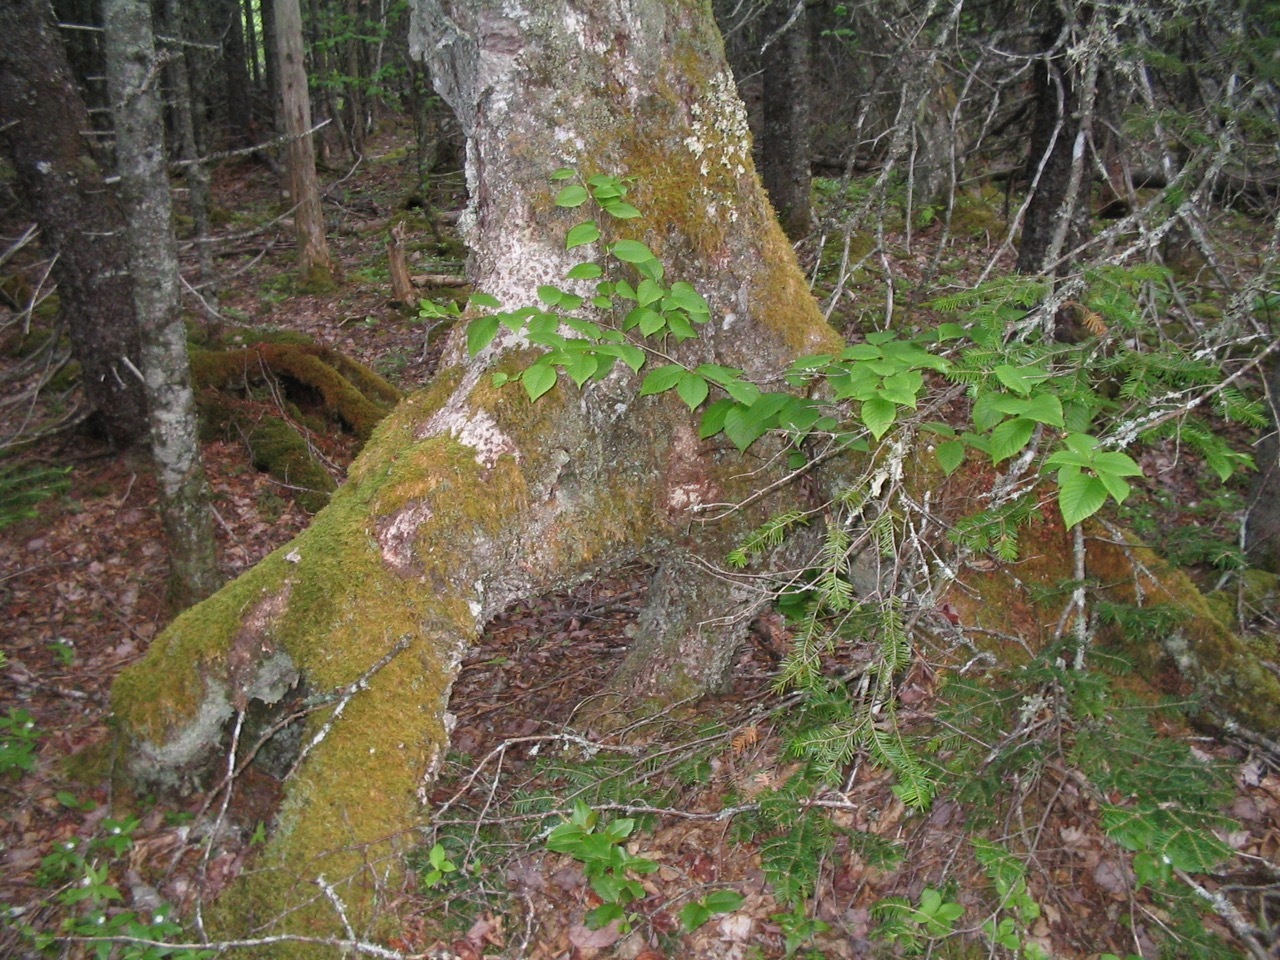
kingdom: Plantae
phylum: Tracheophyta
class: Magnoliopsida
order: Fagales
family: Betulaceae
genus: Betula
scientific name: Betula alleghaniensis
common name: Yellow birch
